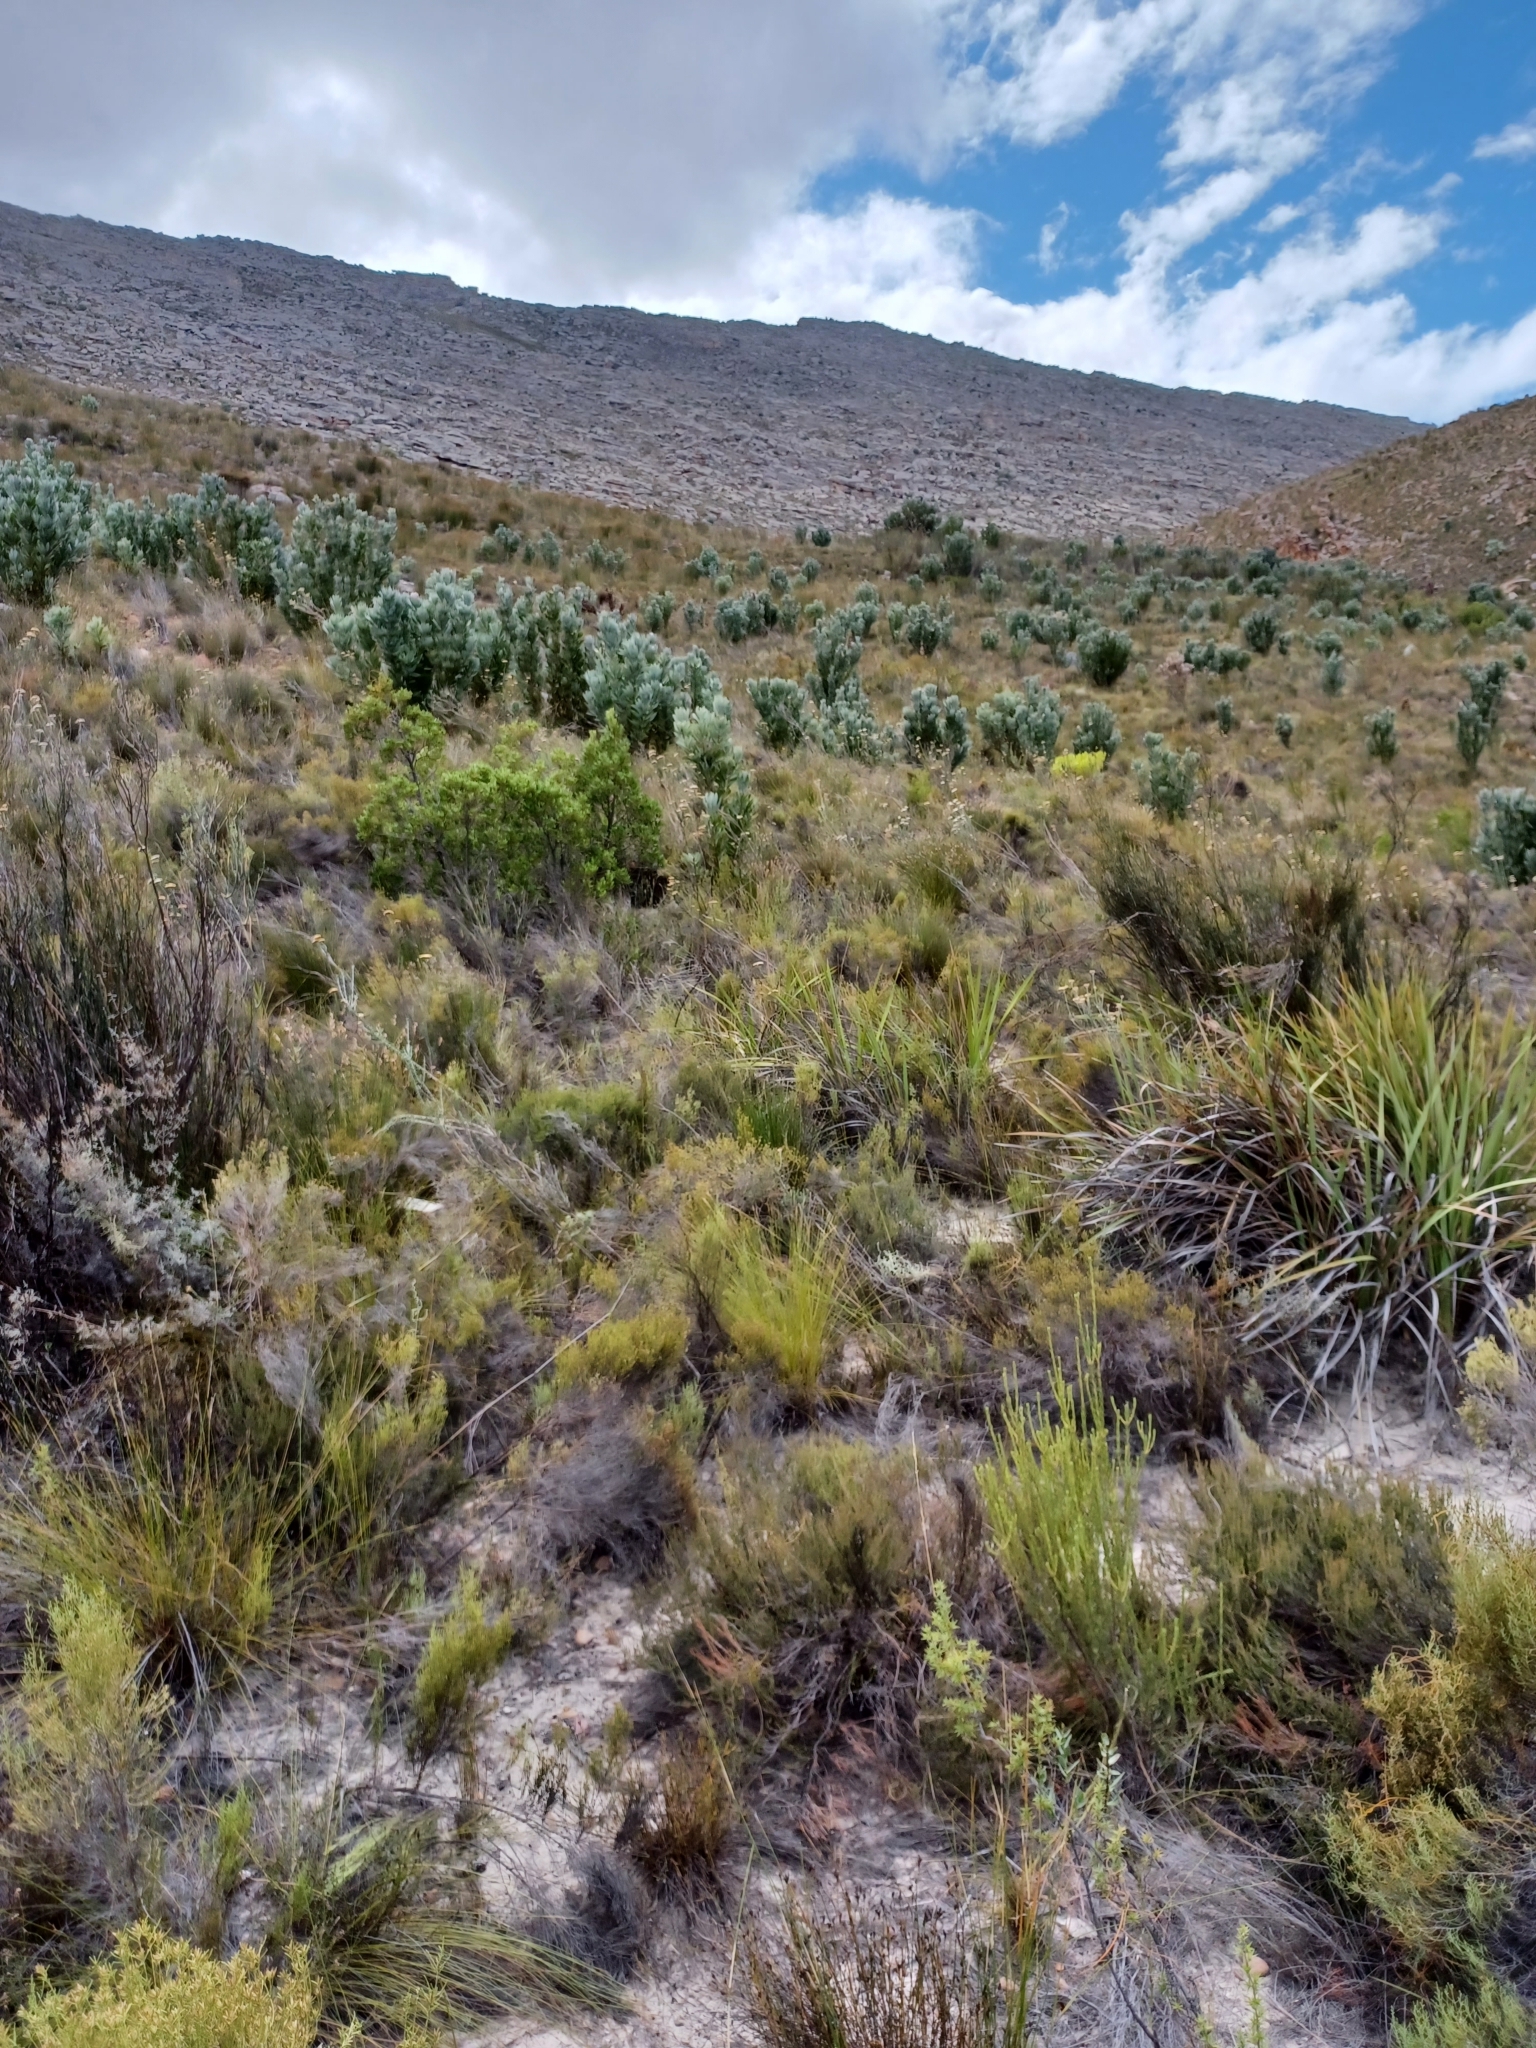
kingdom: Plantae
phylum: Tracheophyta
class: Magnoliopsida
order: Proteales
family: Proteaceae
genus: Protea
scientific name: Protea laurifolia
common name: Grey-leaf sugarbsh
